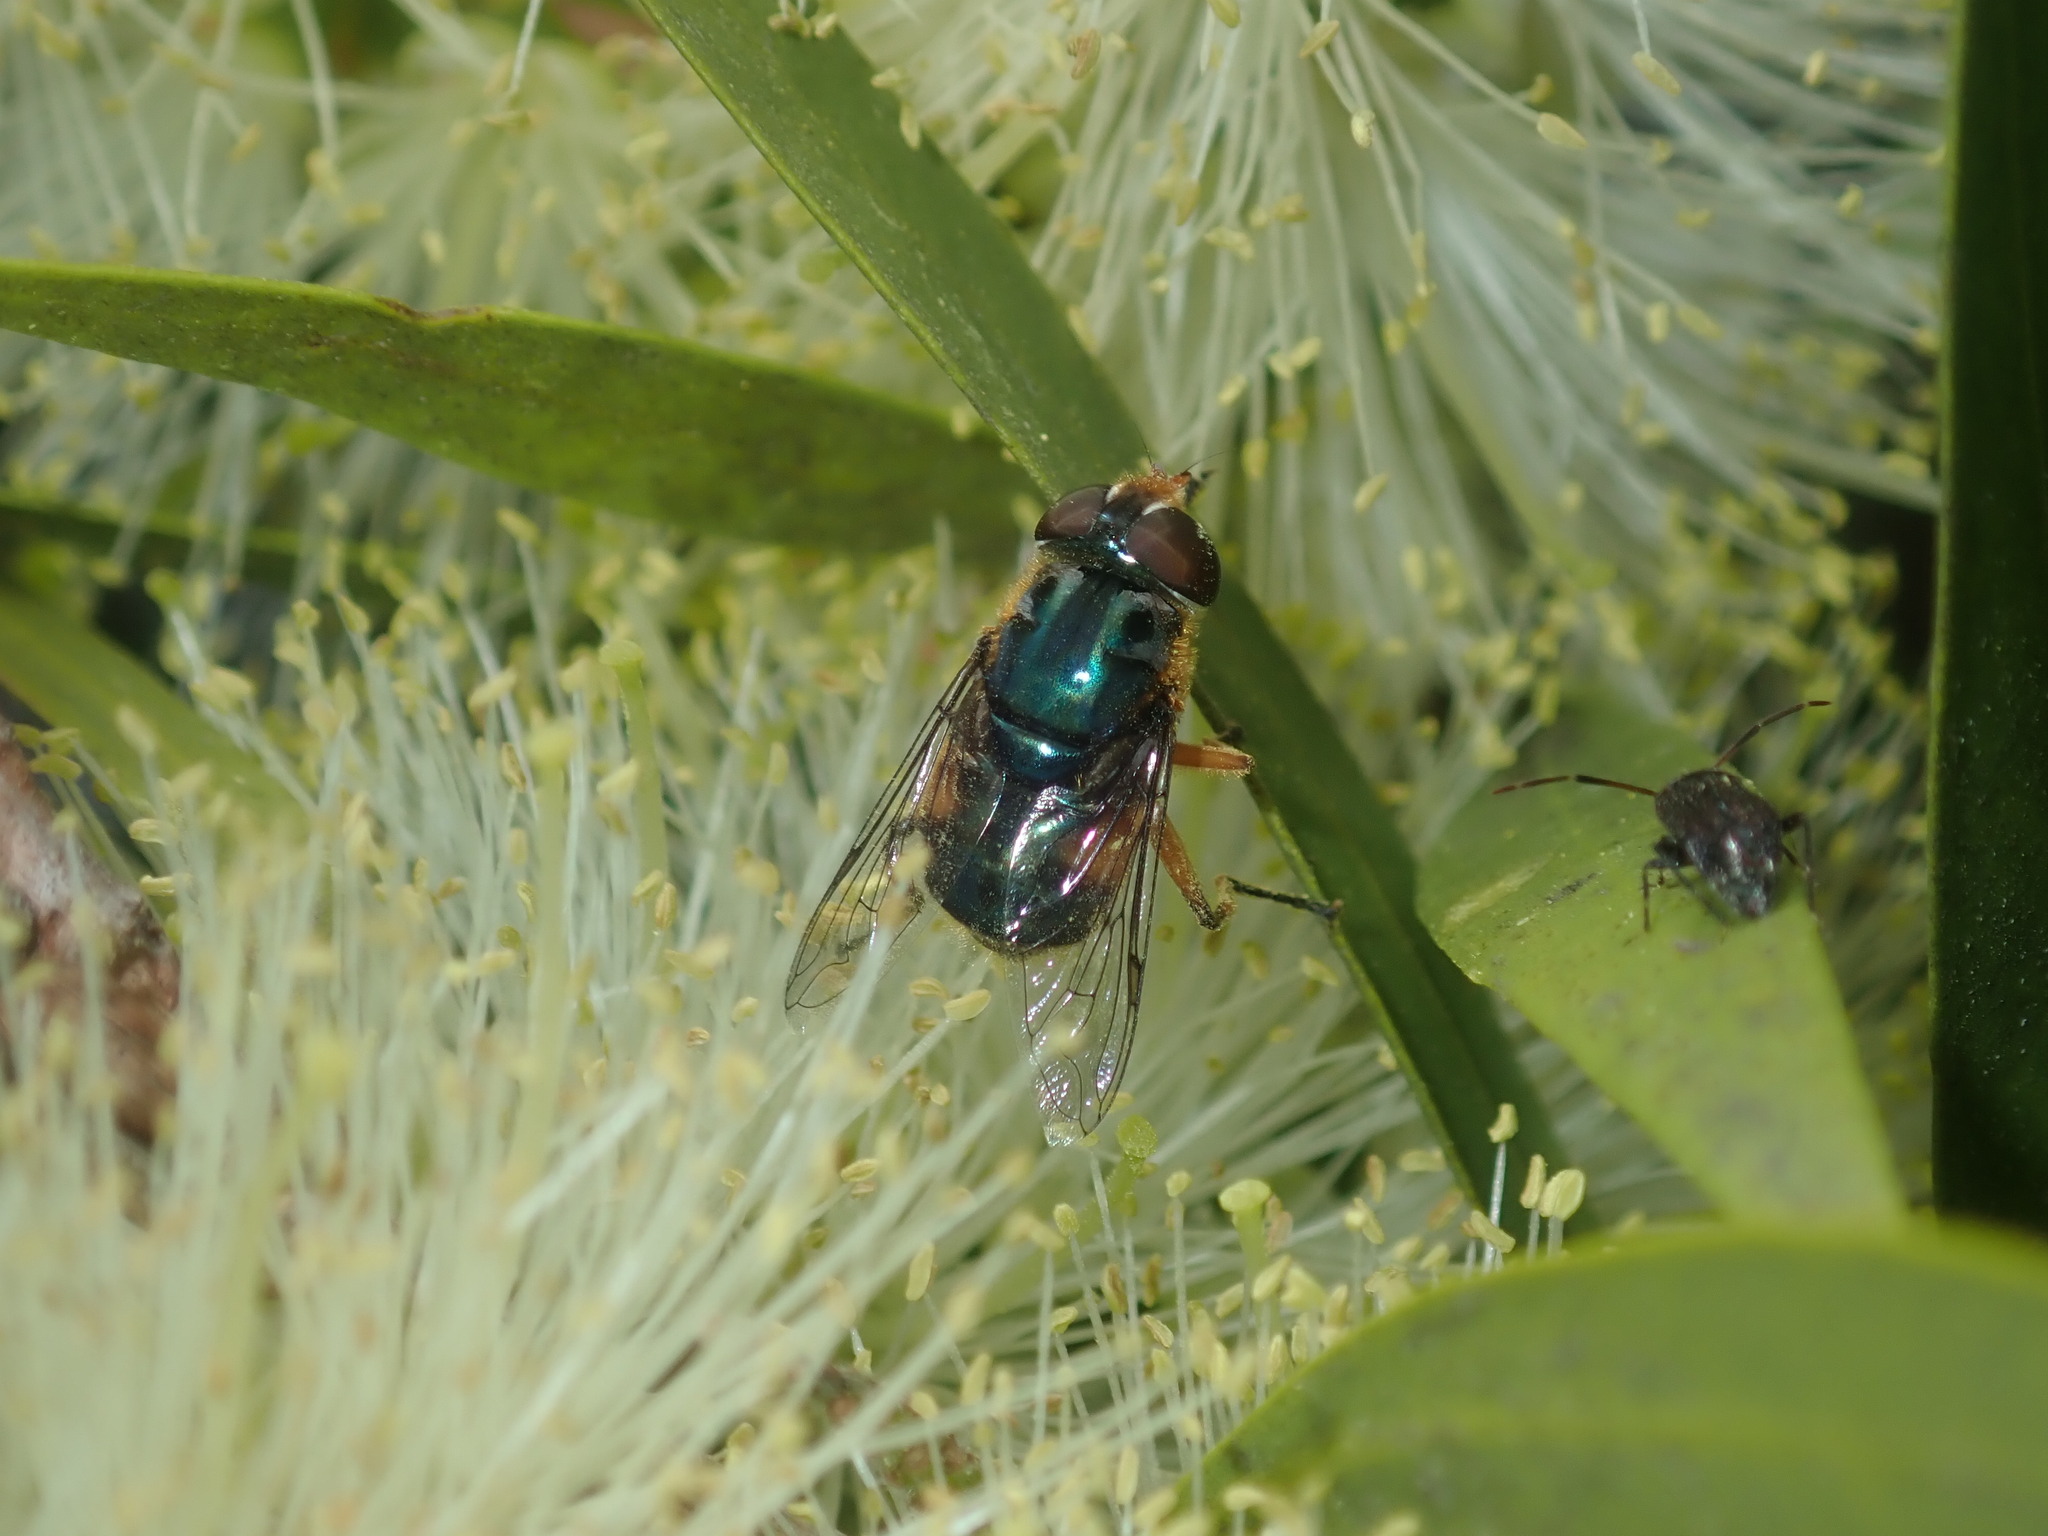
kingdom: Animalia
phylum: Arthropoda
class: Insecta
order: Diptera
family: Syrphidae
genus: Austalis
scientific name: Austalis copiosa
